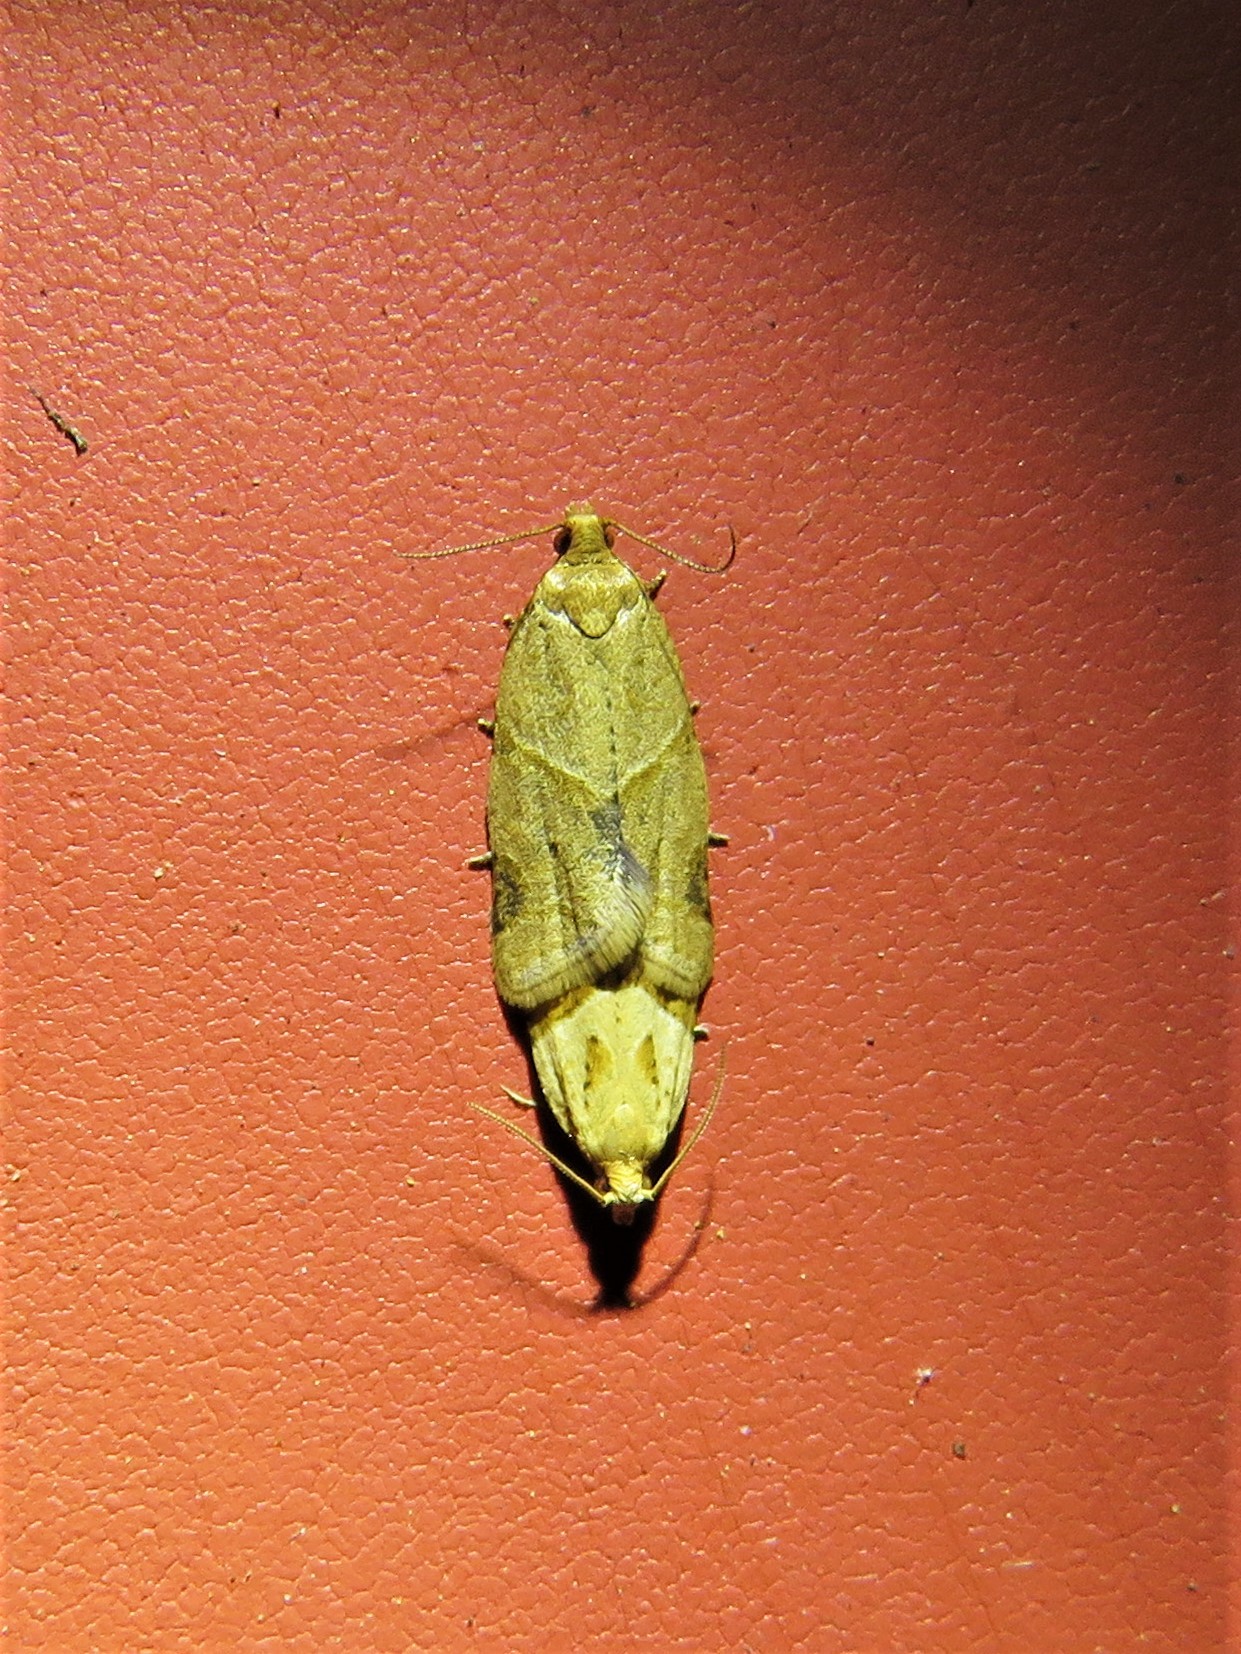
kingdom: Animalia
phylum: Arthropoda
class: Insecta
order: Lepidoptera
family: Tortricidae
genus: Clepsis
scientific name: Clepsis peritana
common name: Garden tortrix
